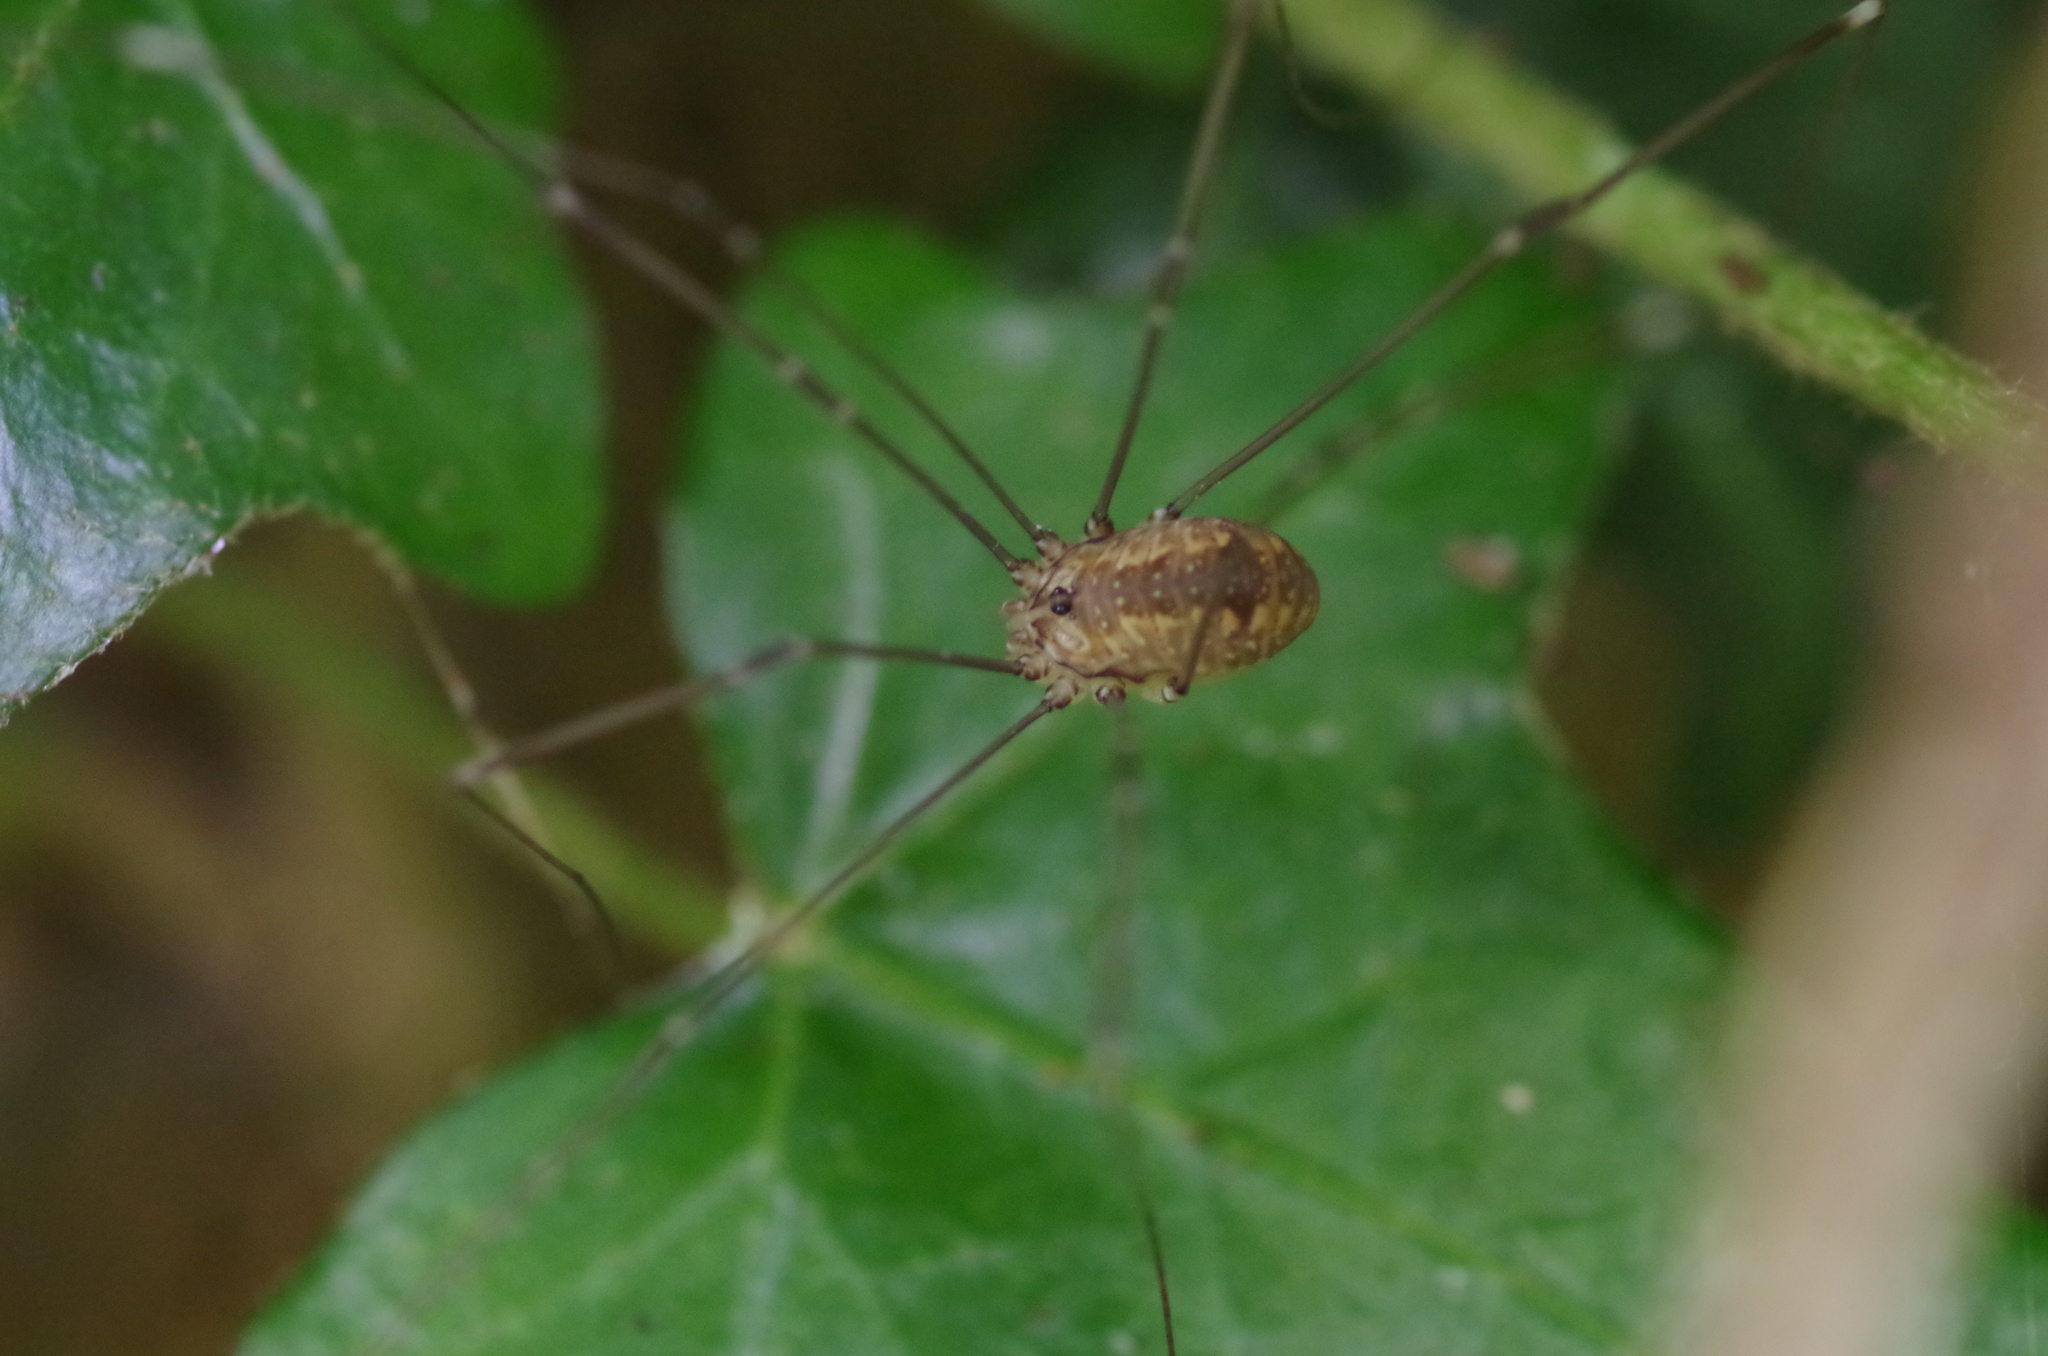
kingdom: Animalia
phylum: Arthropoda
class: Arachnida
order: Opiliones
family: Sclerosomatidae
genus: Leiobunum
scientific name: Leiobunum rotundum
